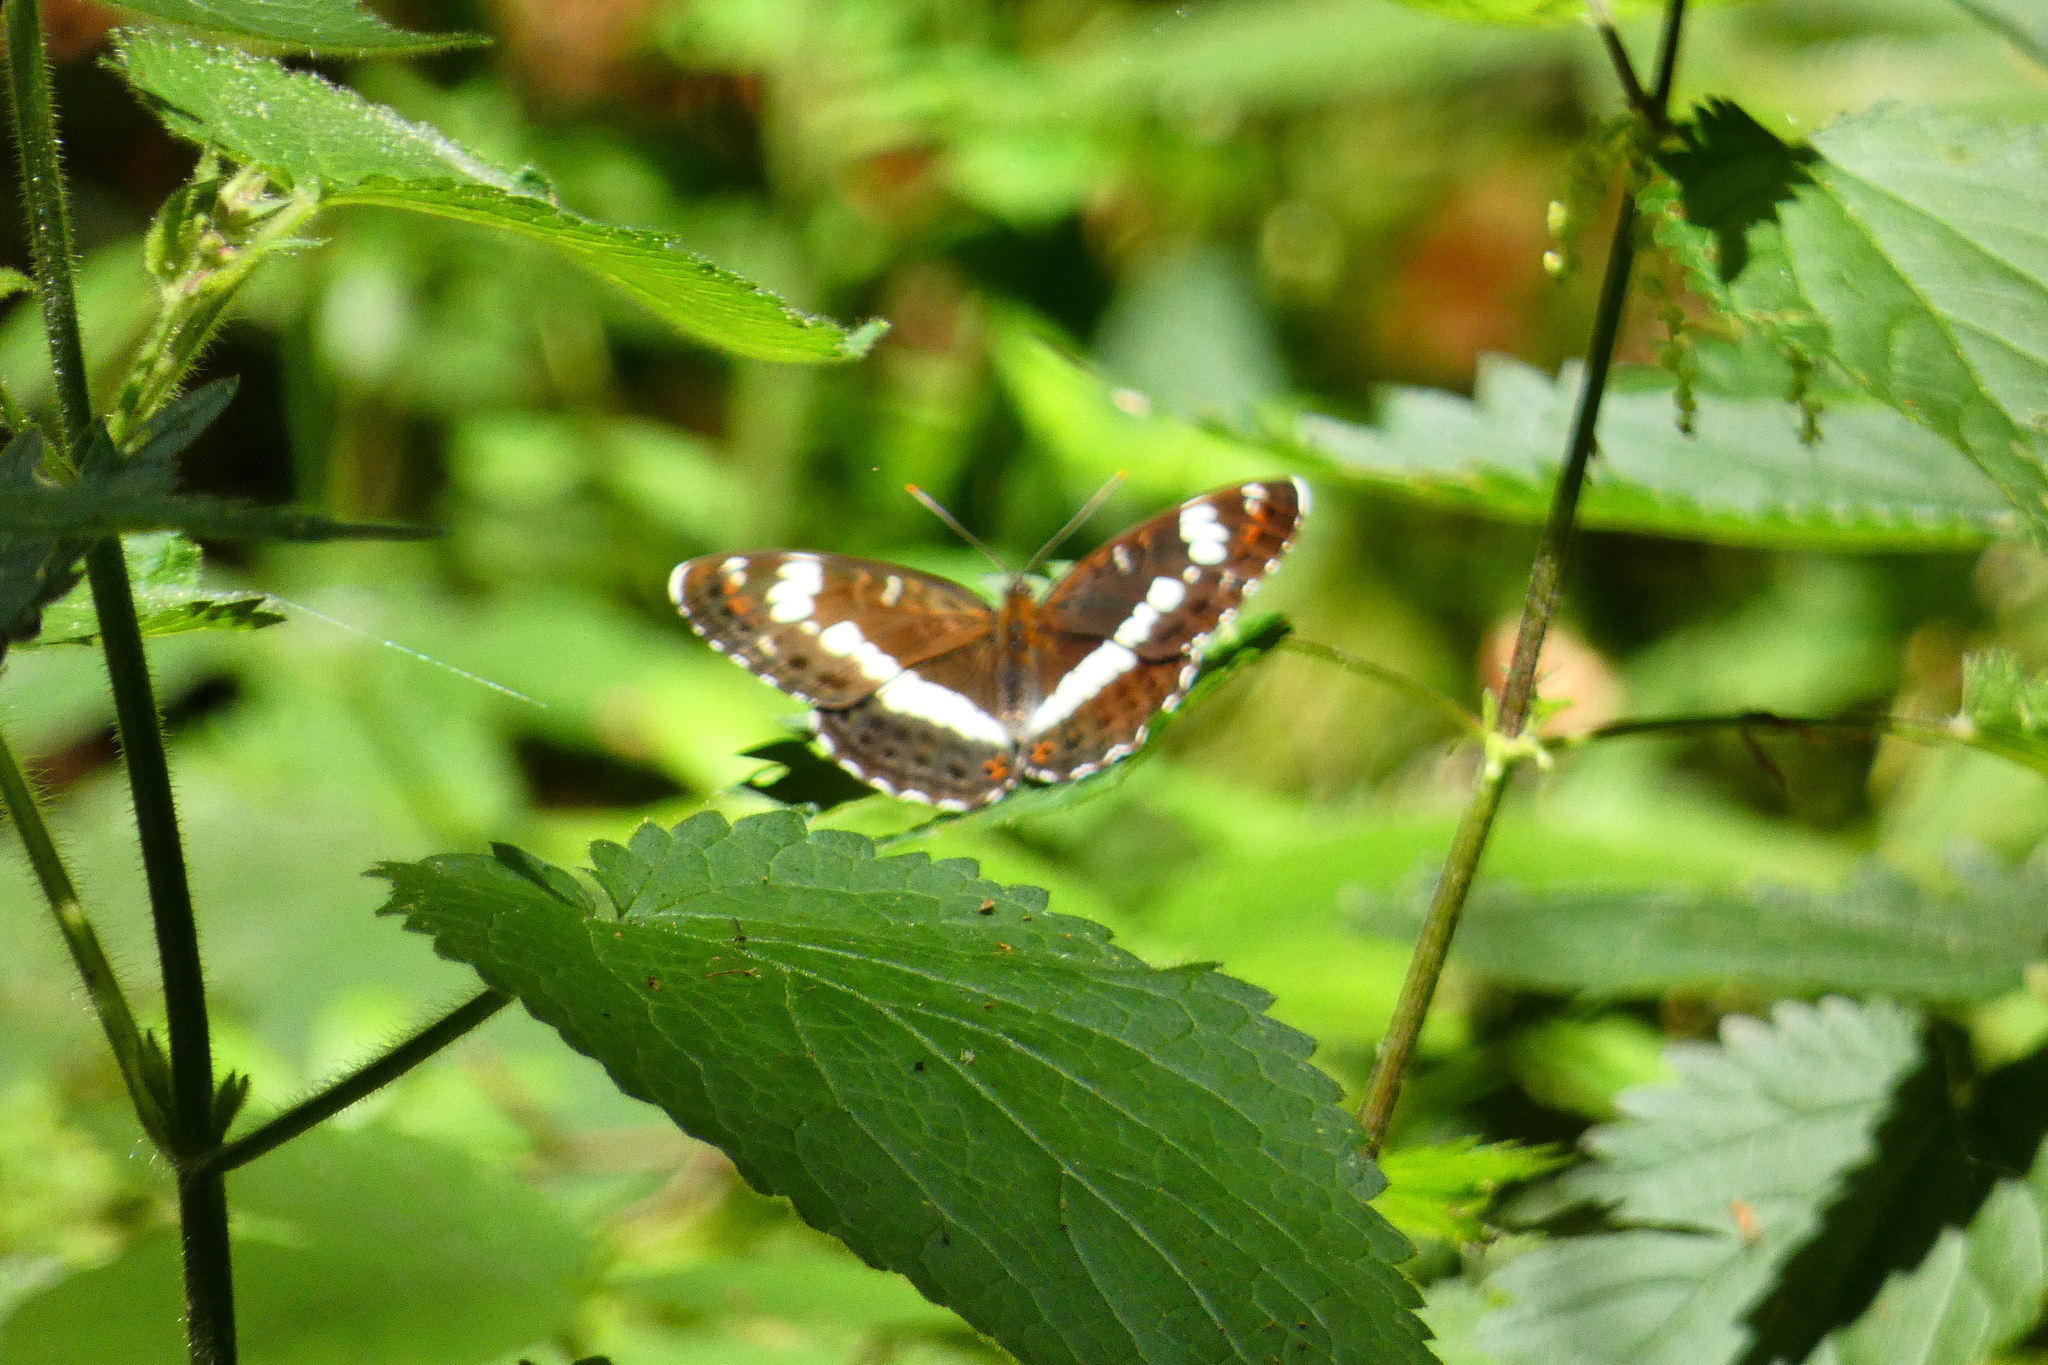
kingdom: Animalia
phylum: Arthropoda
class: Insecta
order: Lepidoptera
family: Nymphalidae
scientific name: Nymphalidae
